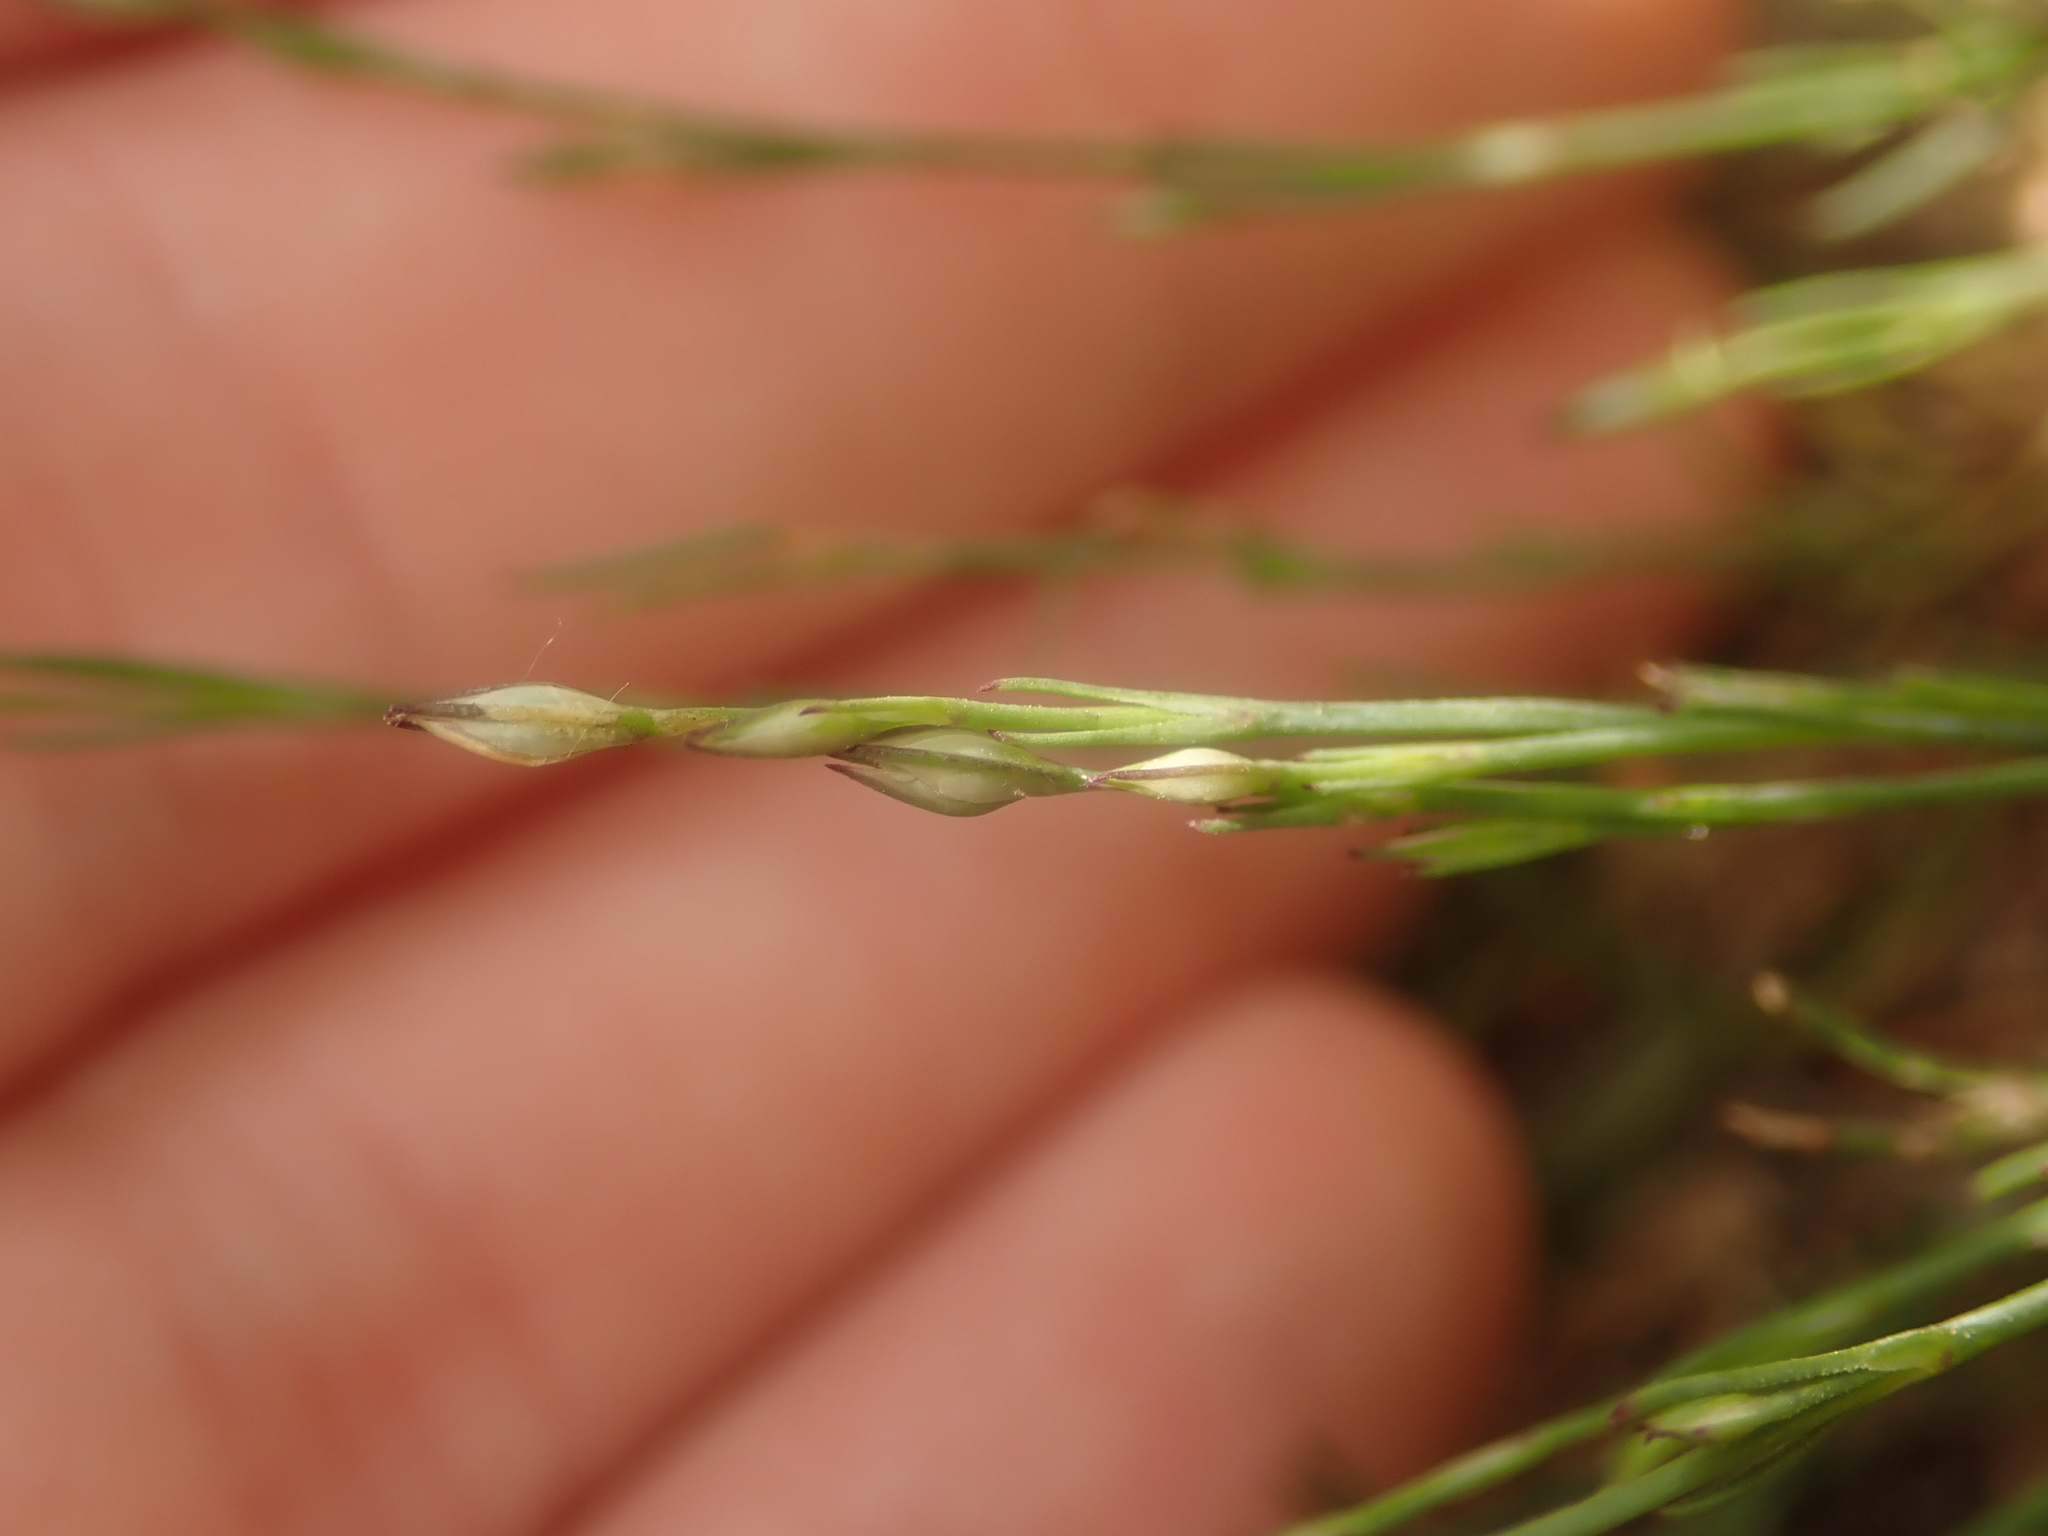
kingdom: Plantae
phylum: Tracheophyta
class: Magnoliopsida
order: Caryophyllales
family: Caryophyllaceae
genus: Petrorhagia
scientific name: Petrorhagia saxifraga
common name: Tunicflower
